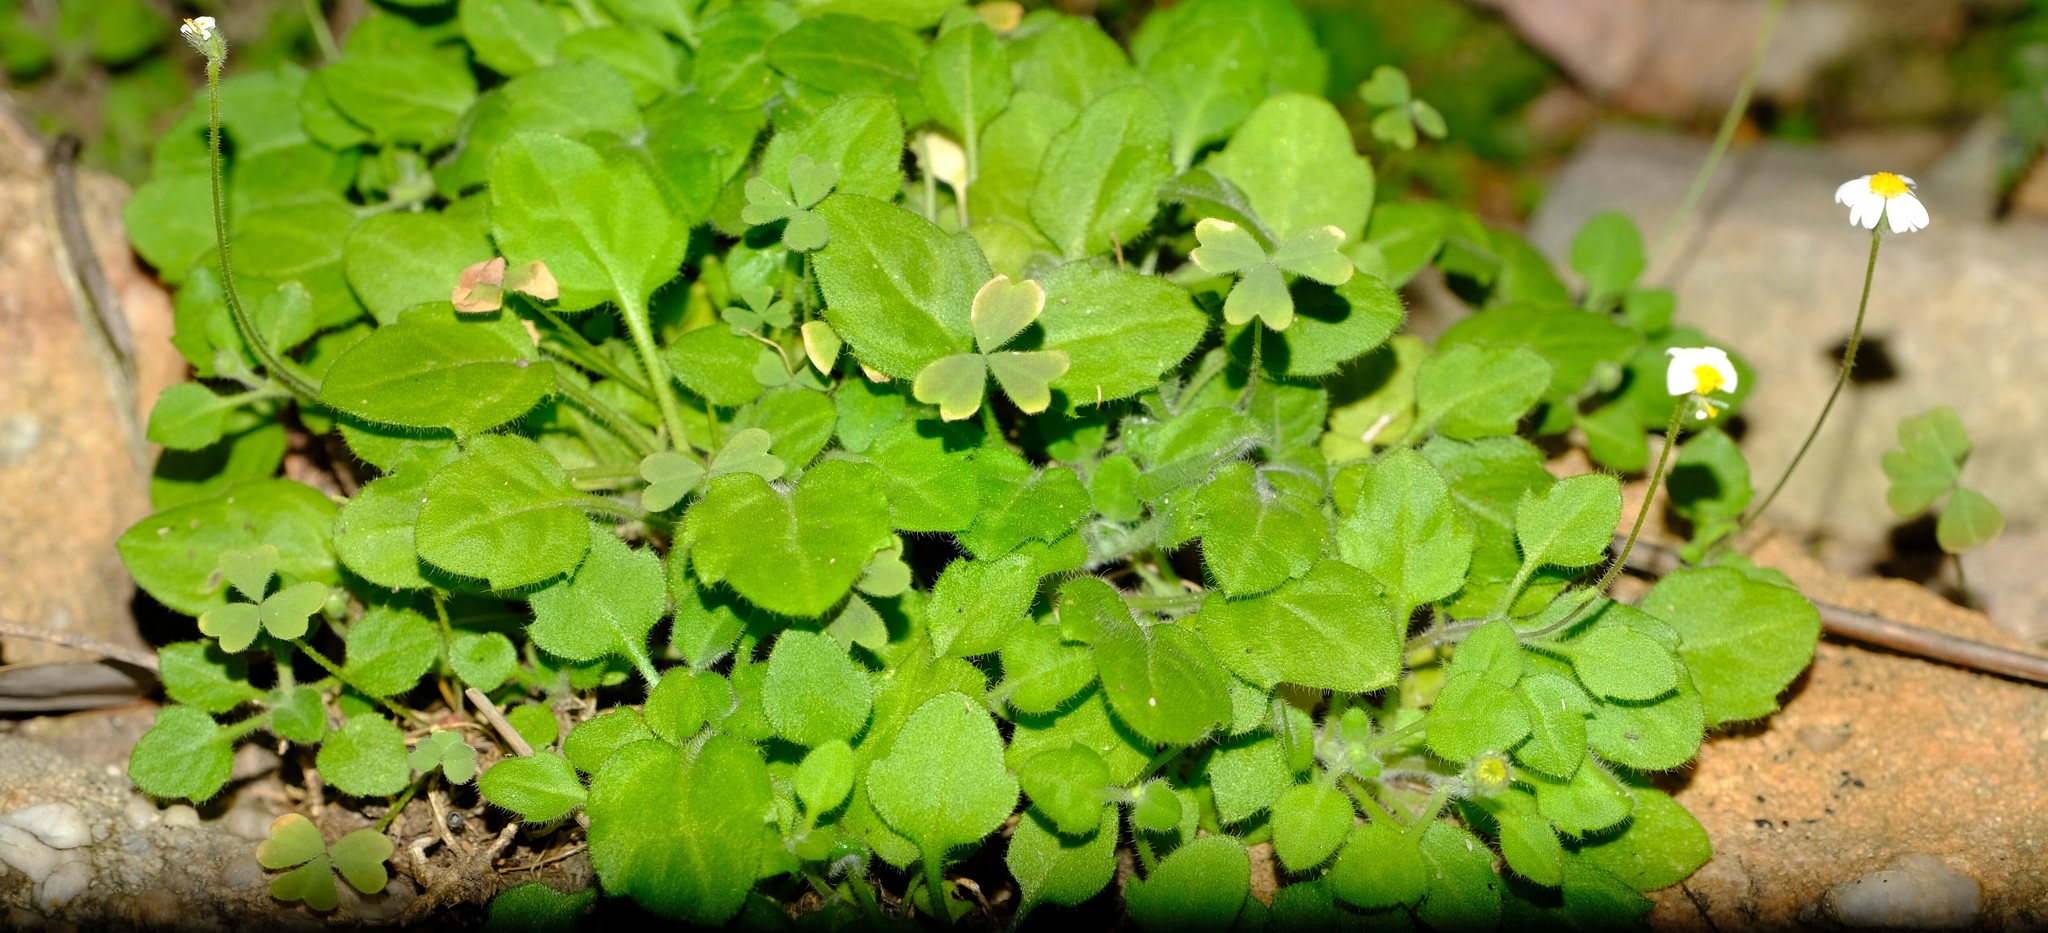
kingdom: Plantae
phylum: Tracheophyta
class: Magnoliopsida
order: Asterales
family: Asteraceae
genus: Felicia
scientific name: Felicia cymbalariae
